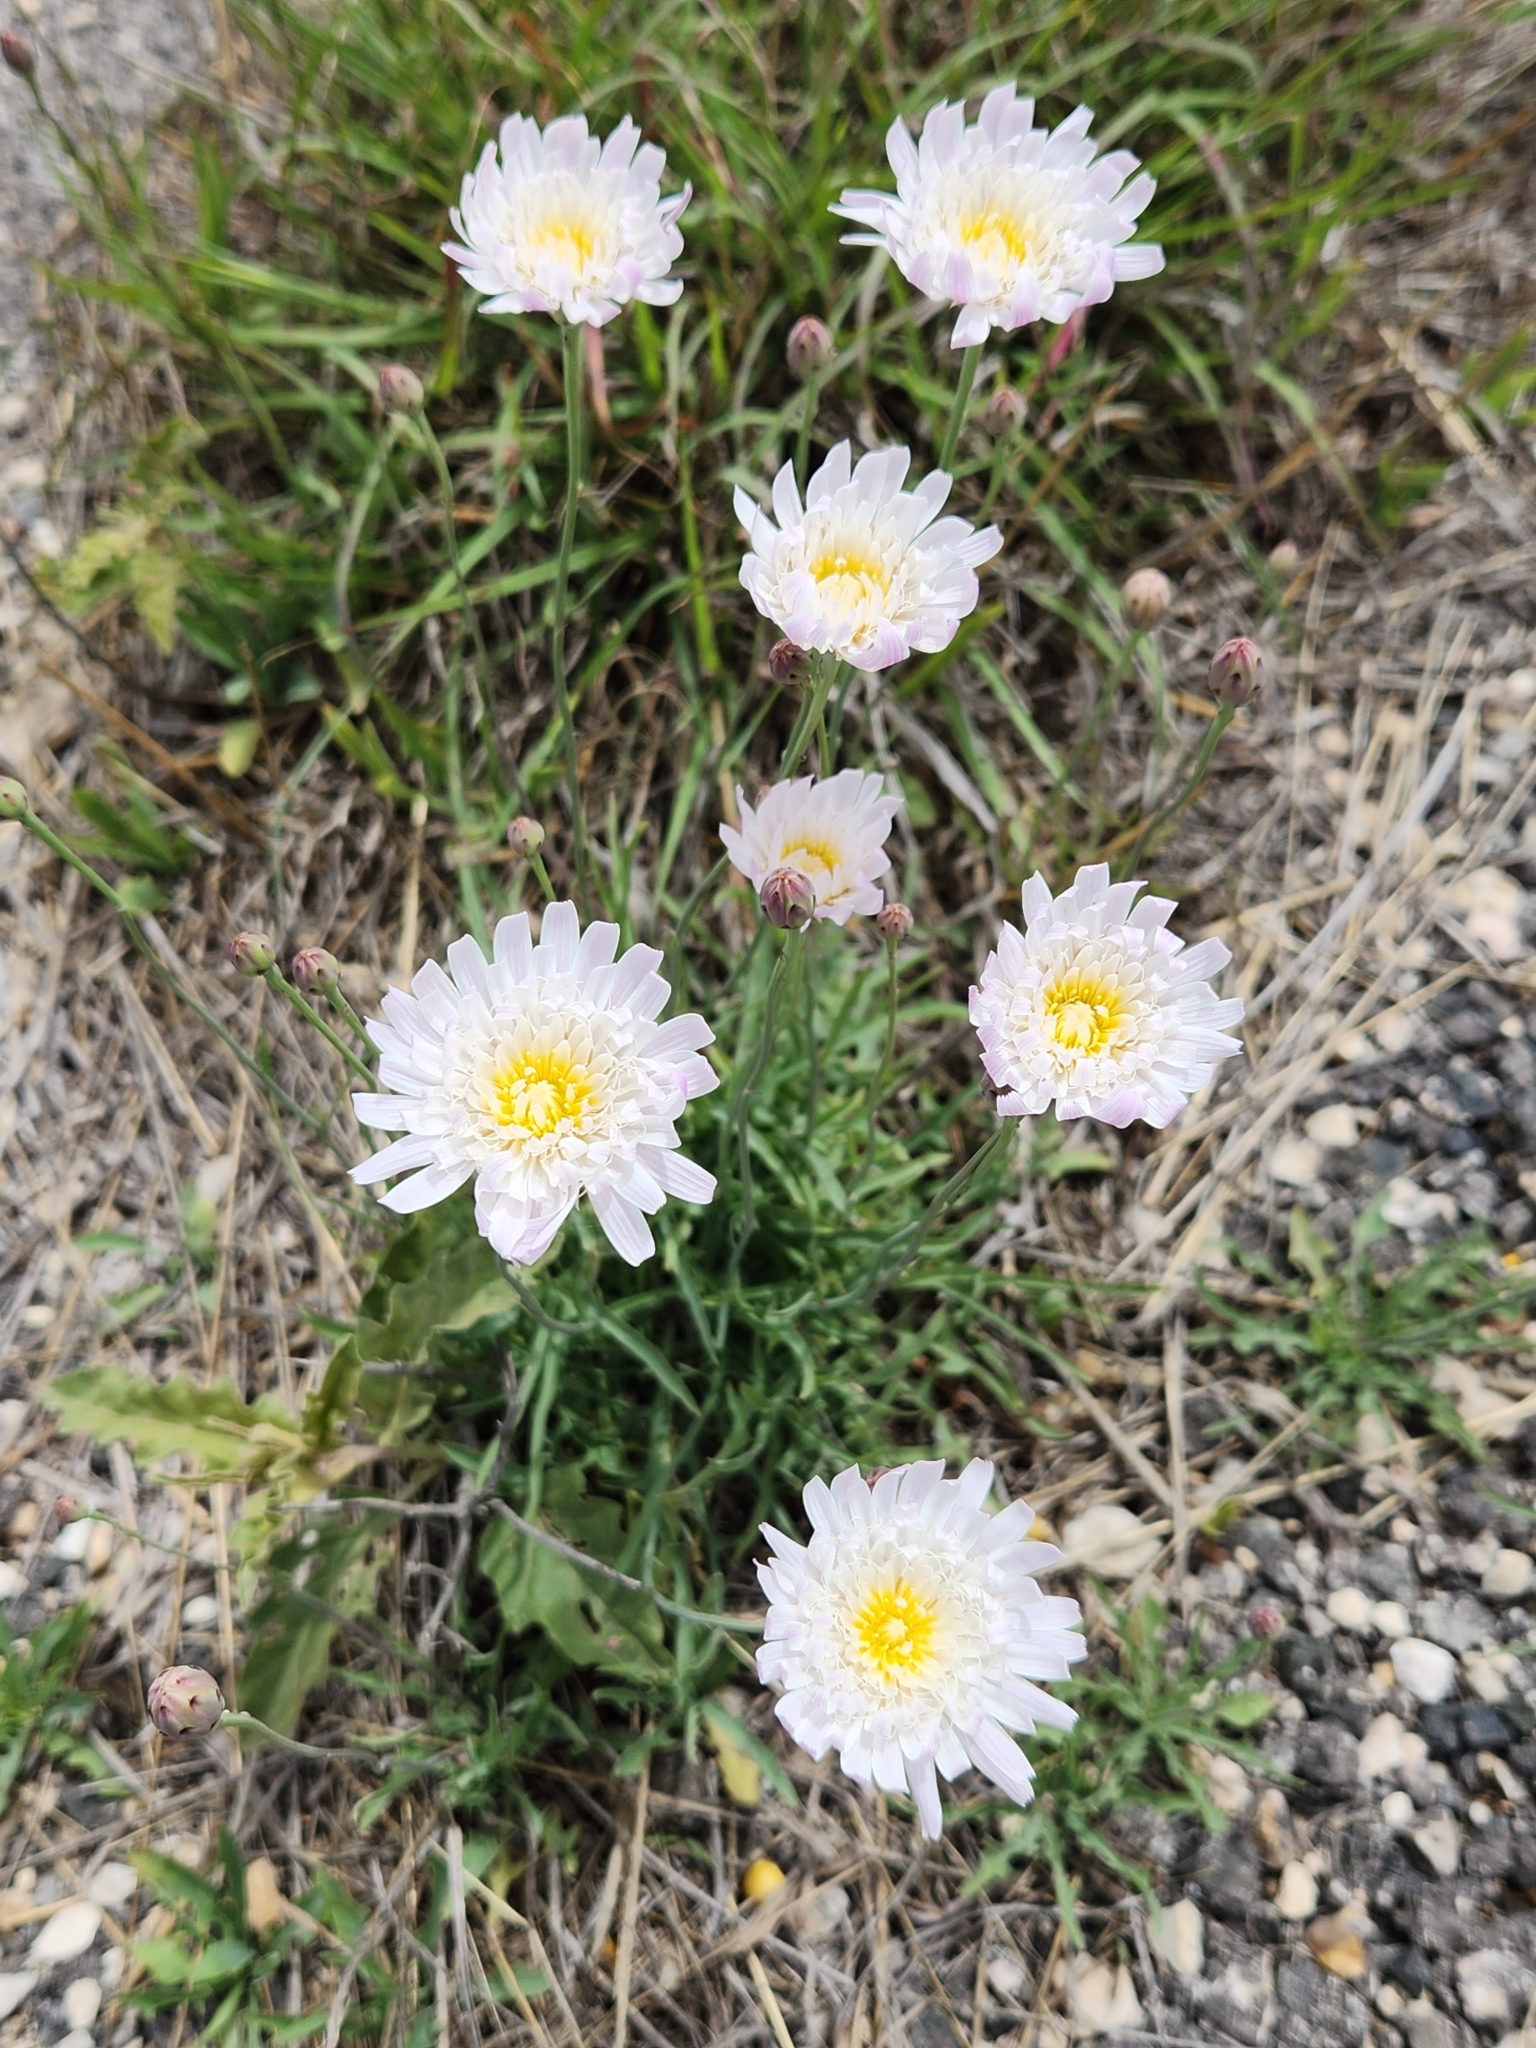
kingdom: Plantae
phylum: Tracheophyta
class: Magnoliopsida
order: Asterales
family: Asteraceae
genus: Pinaropappus
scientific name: Pinaropappus roseus
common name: Rock-lettuce
